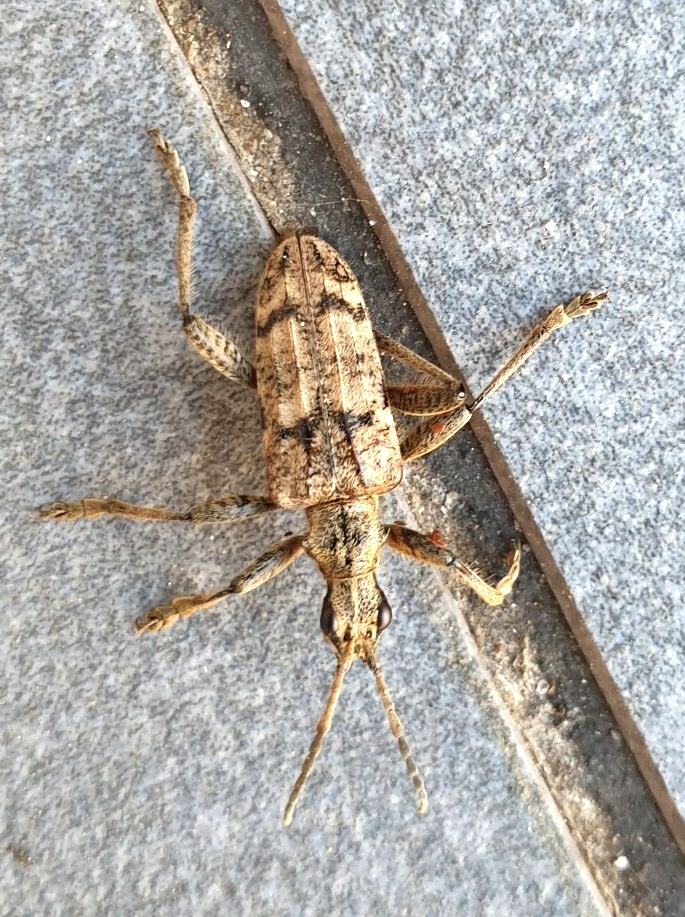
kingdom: Animalia
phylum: Arthropoda
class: Insecta
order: Coleoptera
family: Cerambycidae
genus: Rhagium
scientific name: Rhagium inquisitor
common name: Ribbed pine borer
